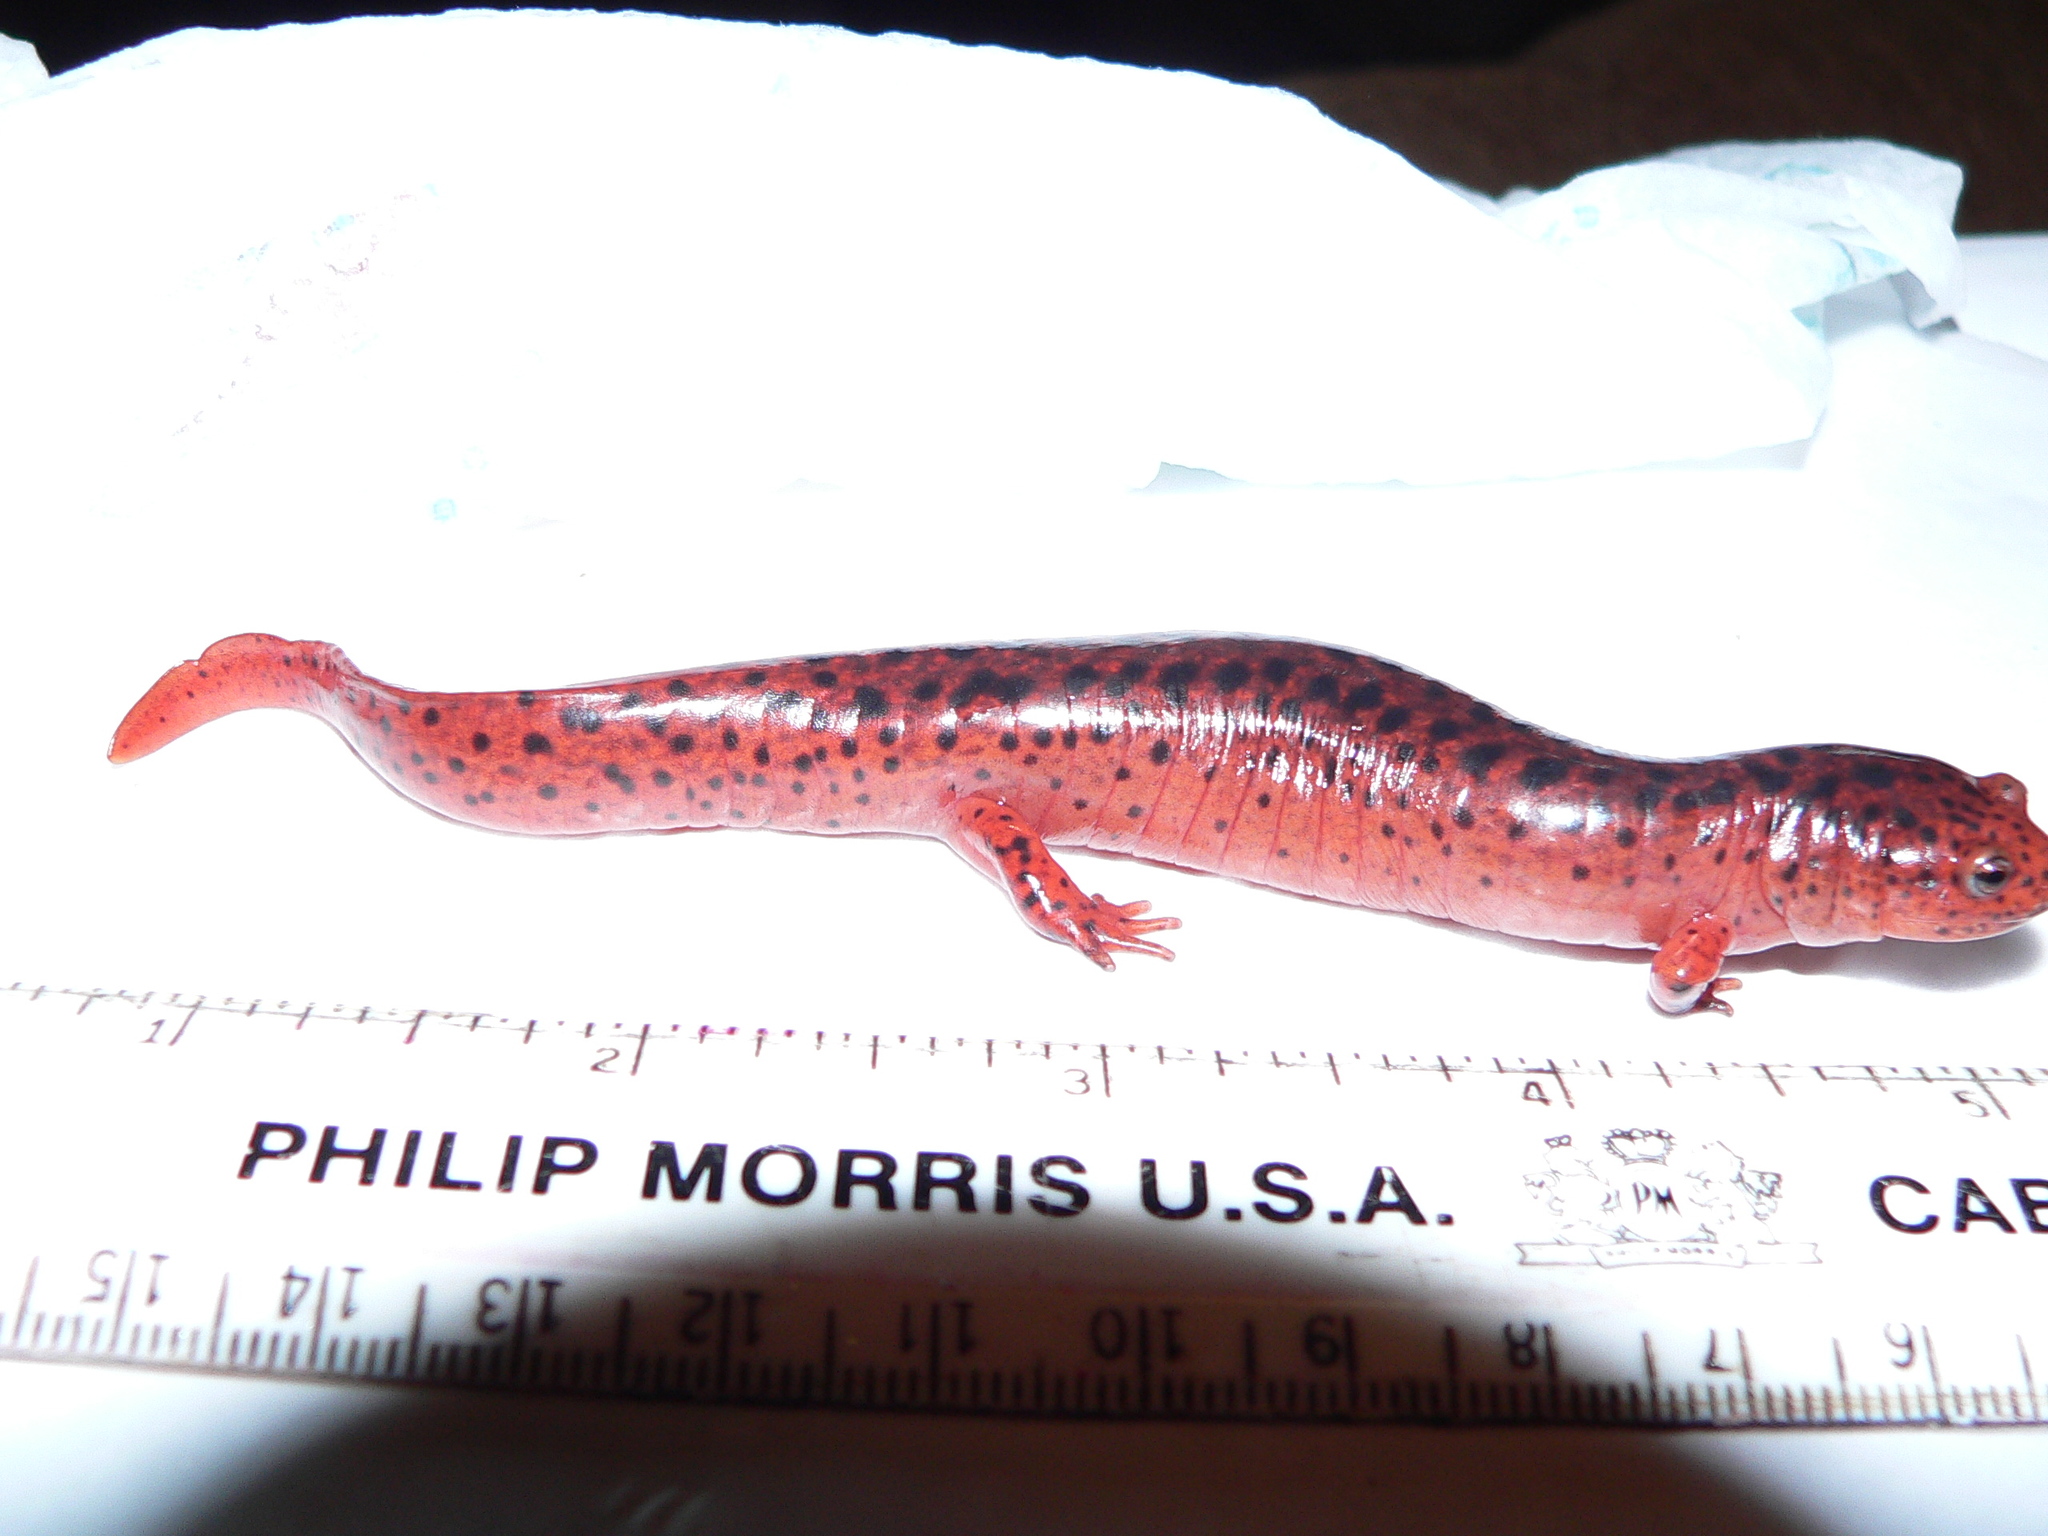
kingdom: Animalia
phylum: Chordata
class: Amphibia
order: Caudata
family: Plethodontidae
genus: Pseudotriton
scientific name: Pseudotriton ruber
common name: Red salamander
